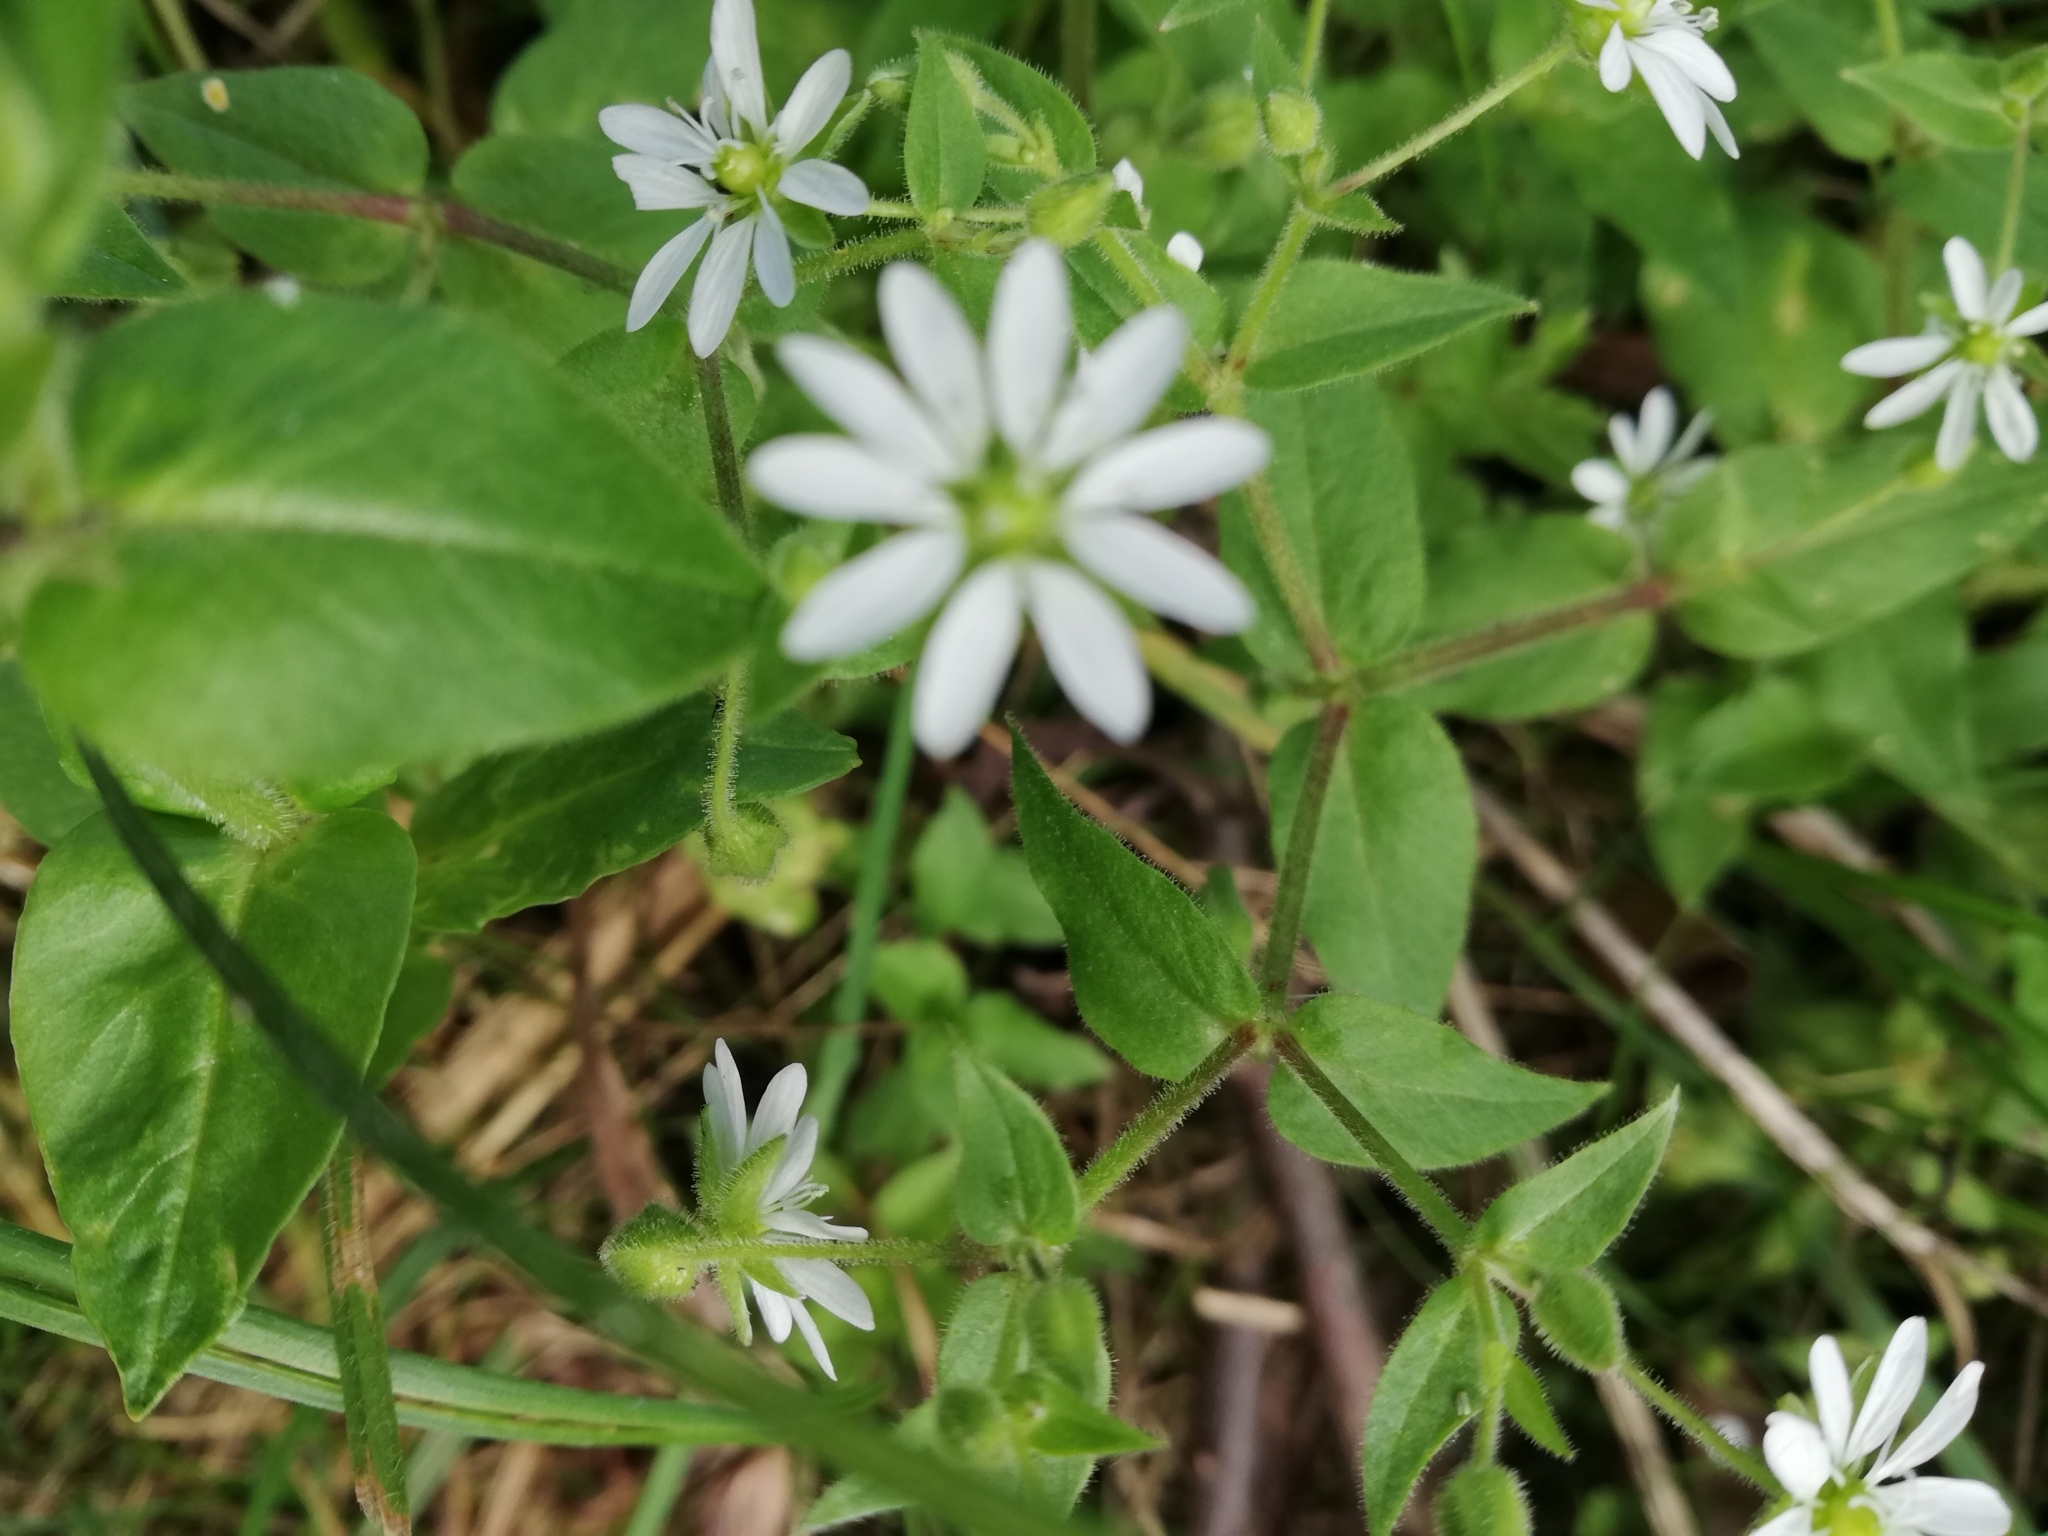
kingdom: Plantae
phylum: Tracheophyta
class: Magnoliopsida
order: Caryophyllales
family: Caryophyllaceae
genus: Stellaria
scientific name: Stellaria aquatica
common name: Water chickweed
